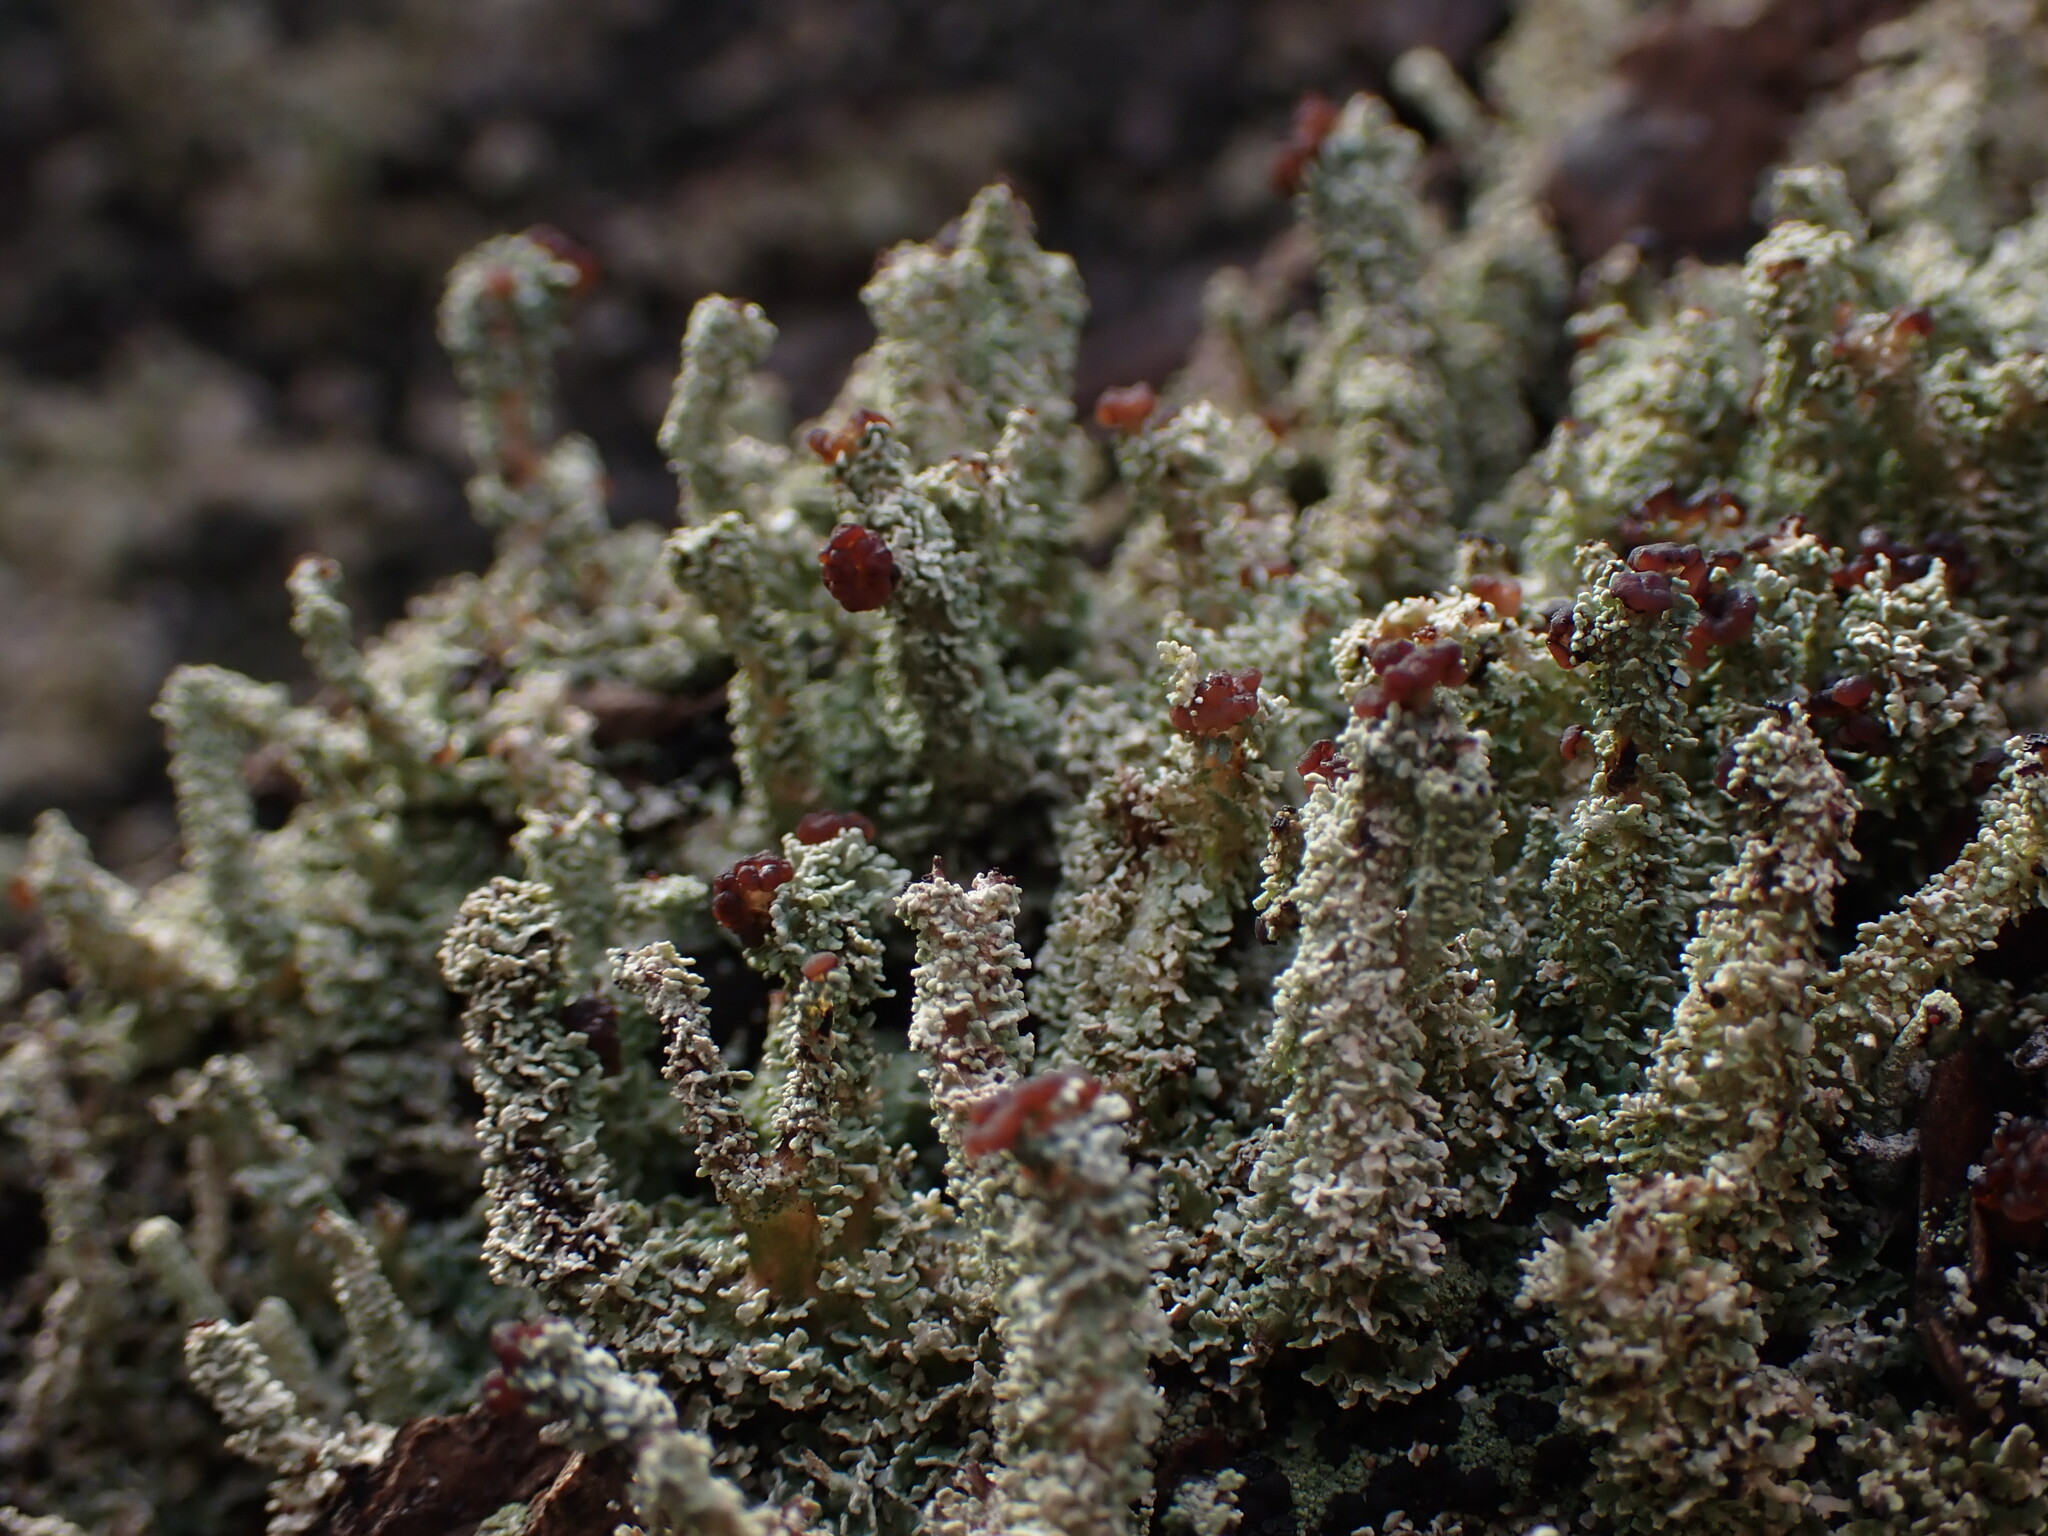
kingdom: Fungi
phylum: Ascomycota
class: Lecanoromycetes
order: Lecanorales
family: Cladoniaceae
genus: Cladonia
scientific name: Cladonia squamosa
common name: Dragon horn
